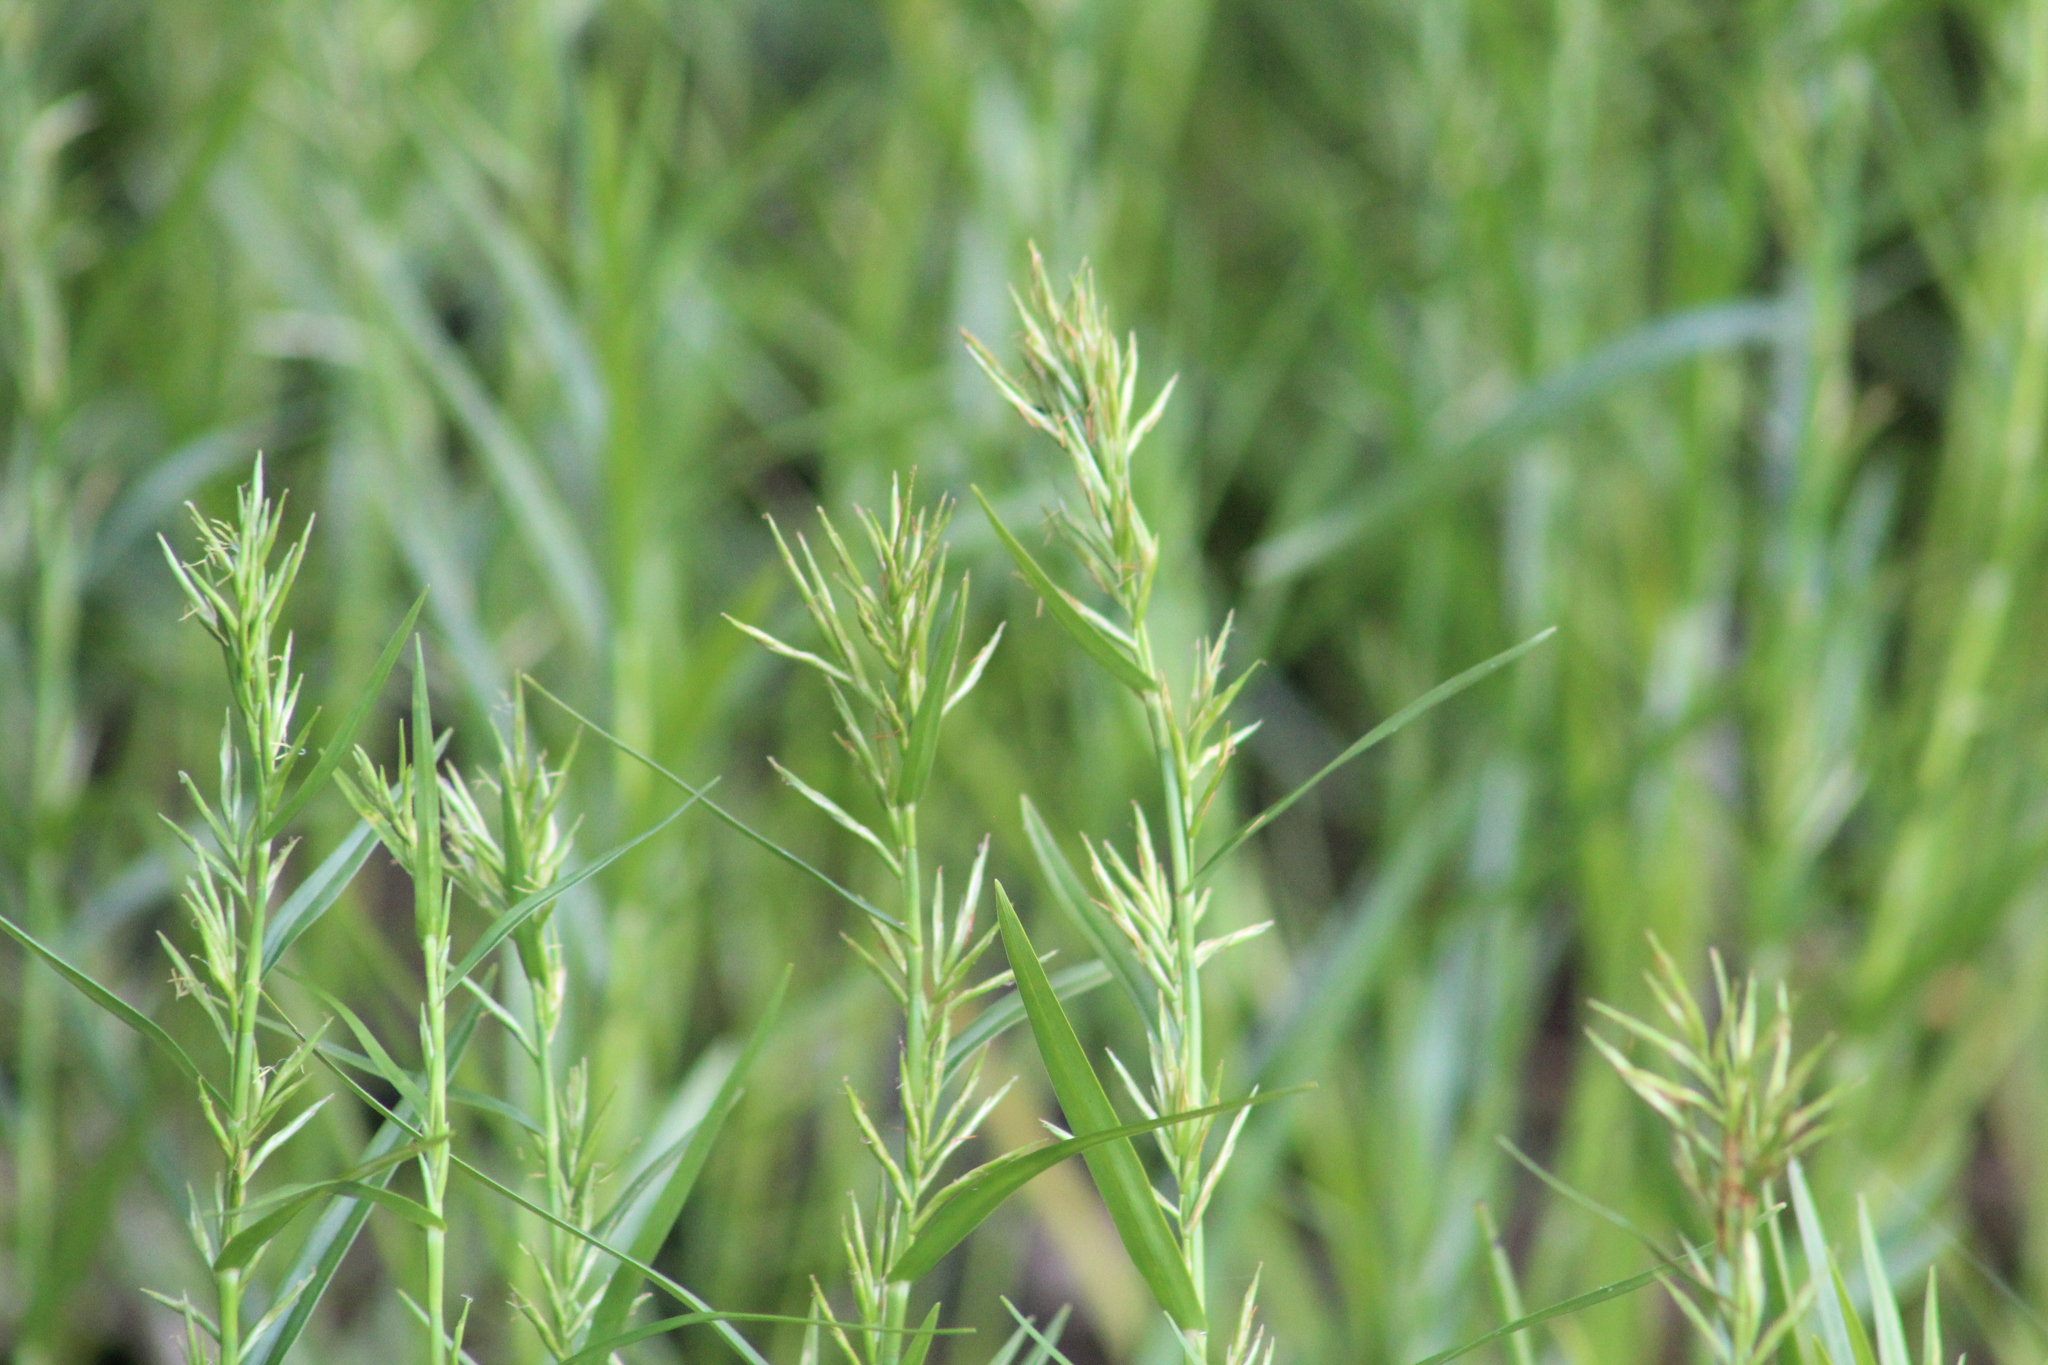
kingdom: Plantae
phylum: Tracheophyta
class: Liliopsida
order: Poales
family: Cyperaceae
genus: Dulichium
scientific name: Dulichium arundinaceum
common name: Three-way sedge
